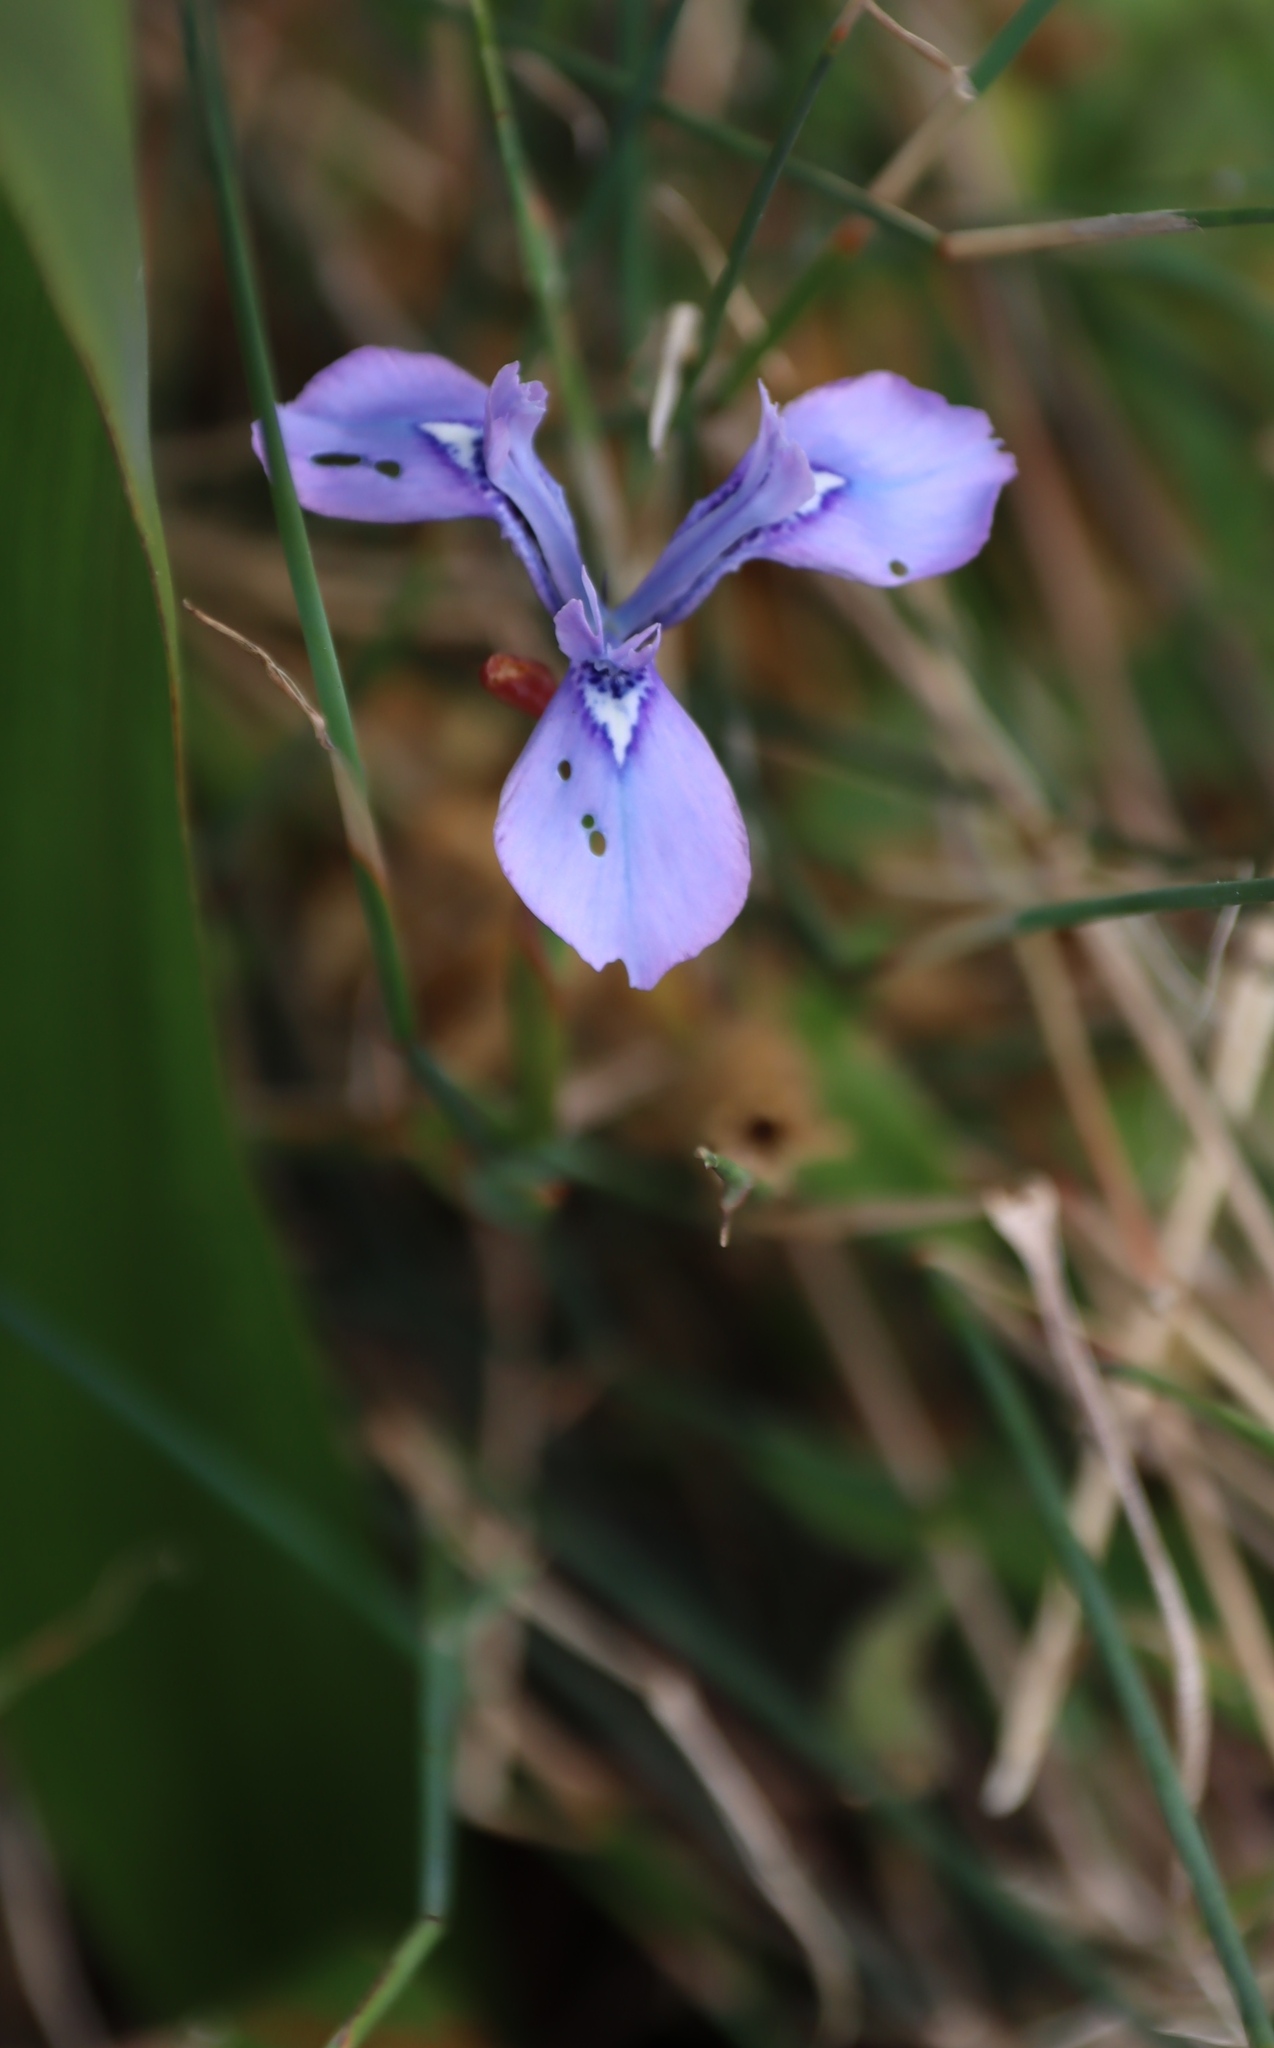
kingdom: Plantae
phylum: Tracheophyta
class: Liliopsida
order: Asparagales
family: Iridaceae
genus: Moraea
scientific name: Moraea tripetala
